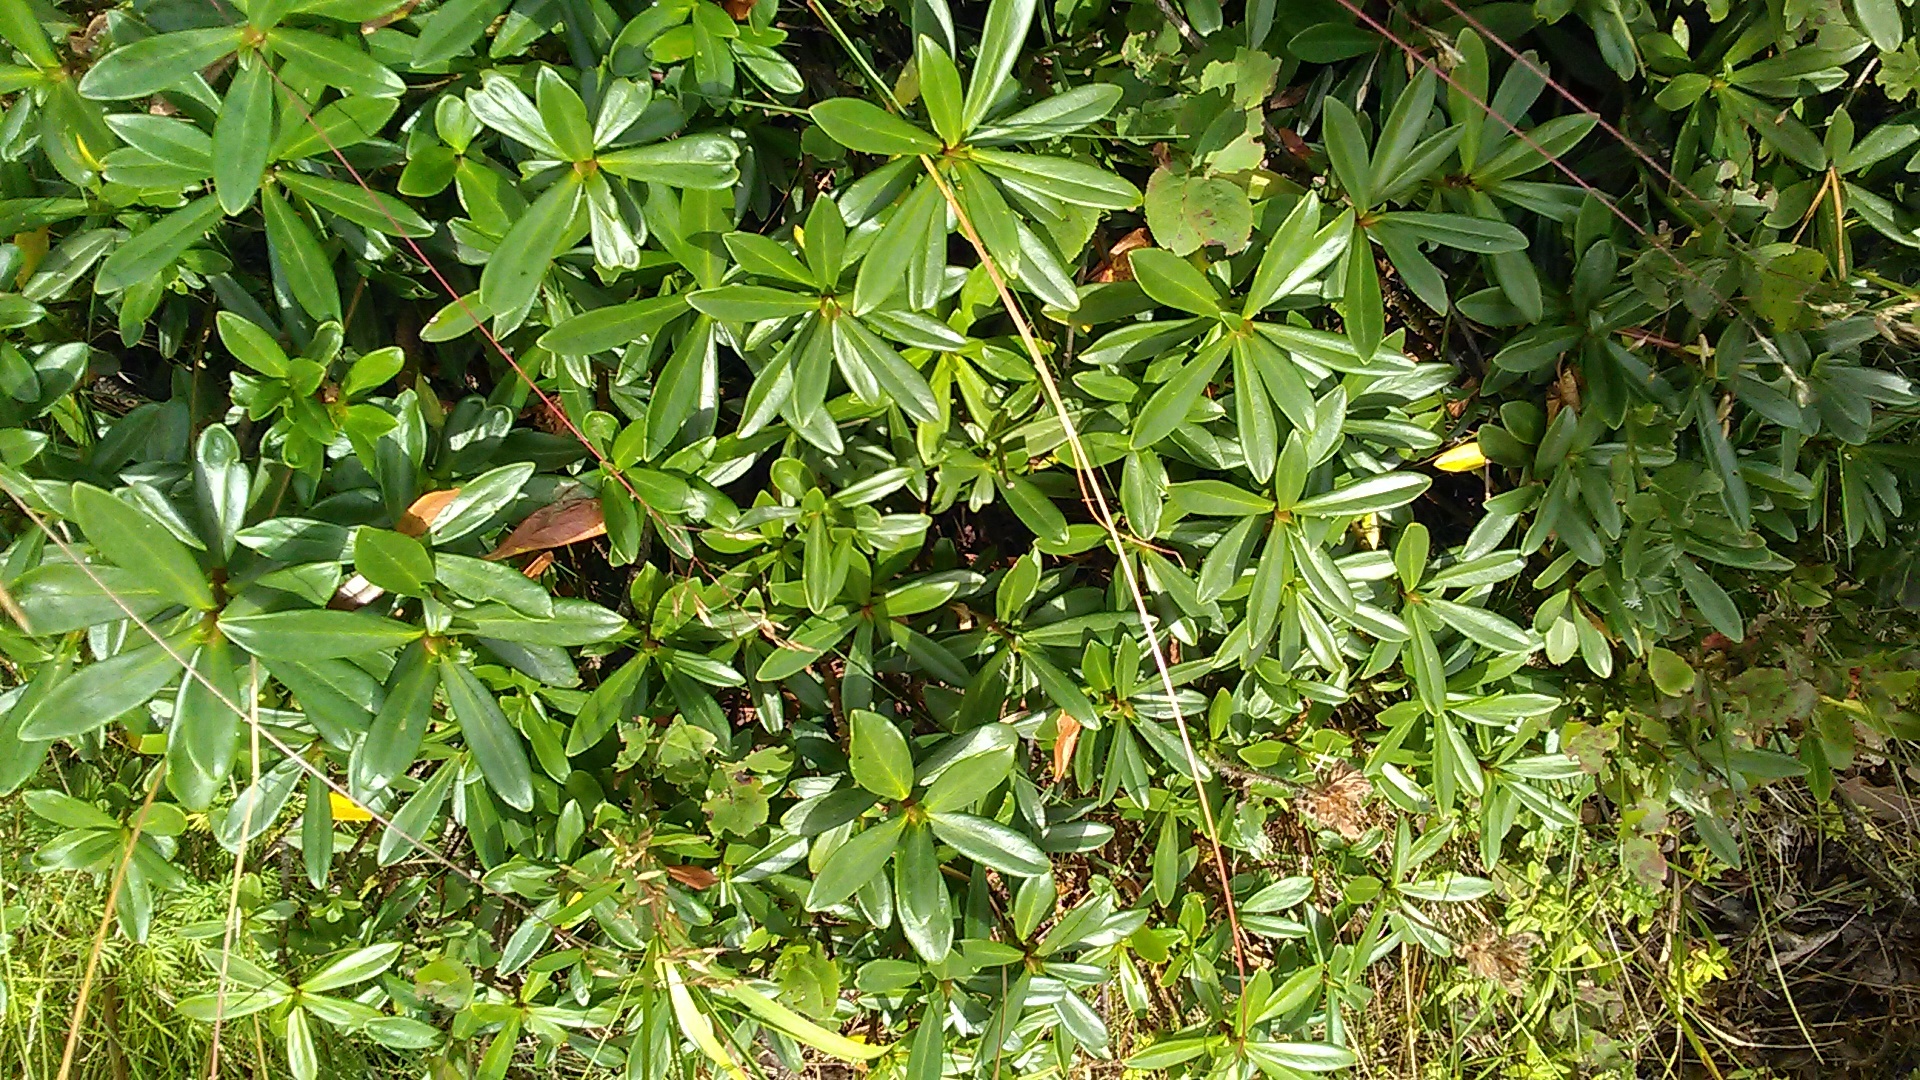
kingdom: Plantae
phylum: Tracheophyta
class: Magnoliopsida
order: Malvales
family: Thymelaeaceae
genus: Daphne
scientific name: Daphne glomerata
